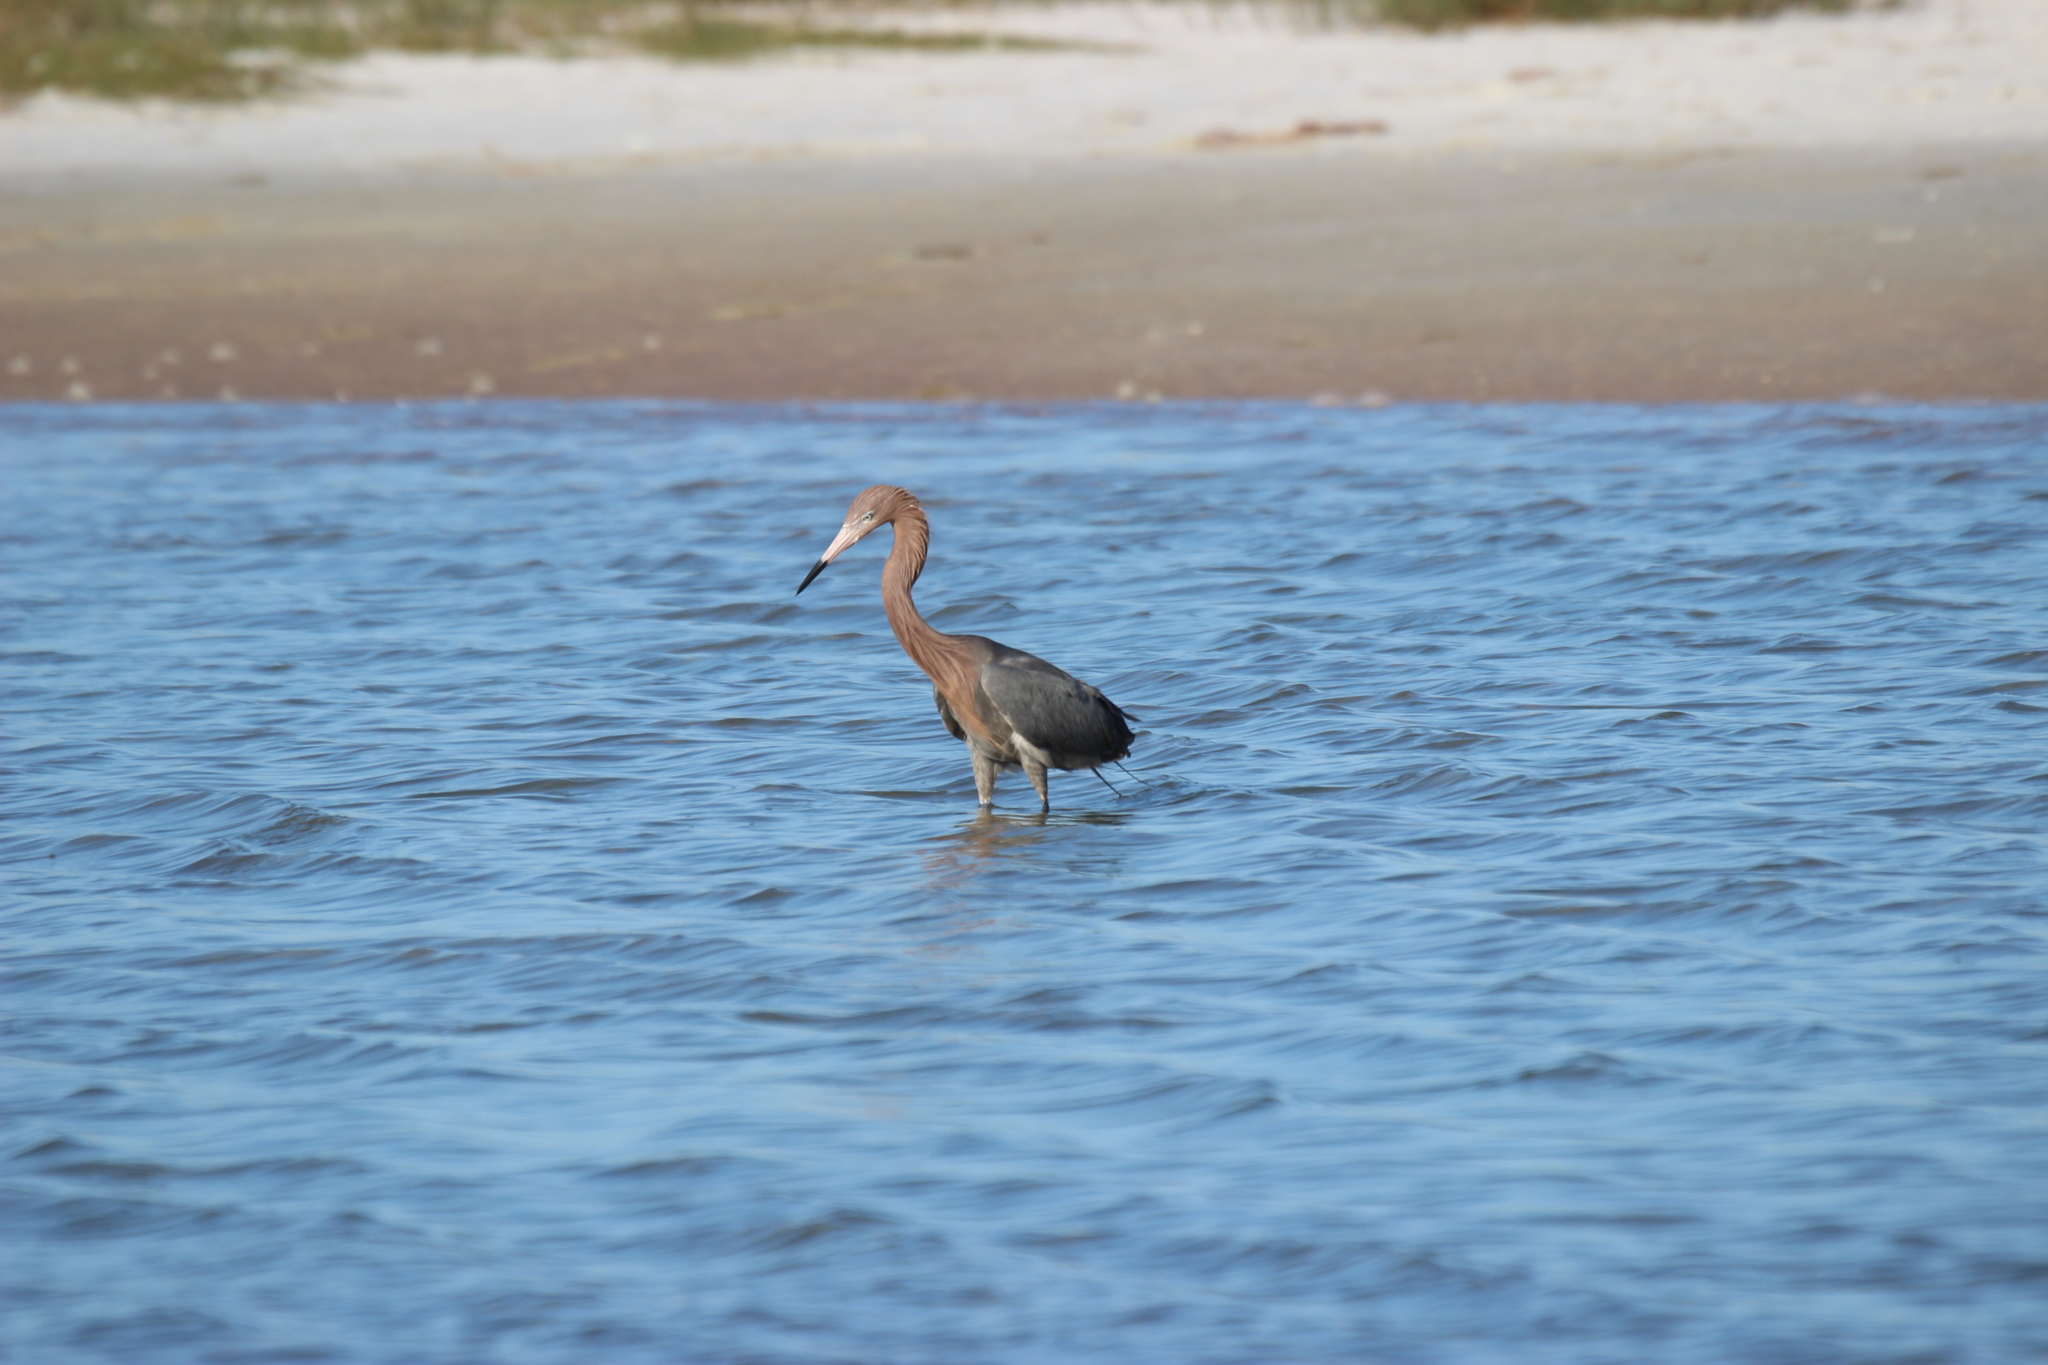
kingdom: Animalia
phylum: Chordata
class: Aves
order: Pelecaniformes
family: Ardeidae
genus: Egretta
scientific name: Egretta rufescens
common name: Reddish egret
